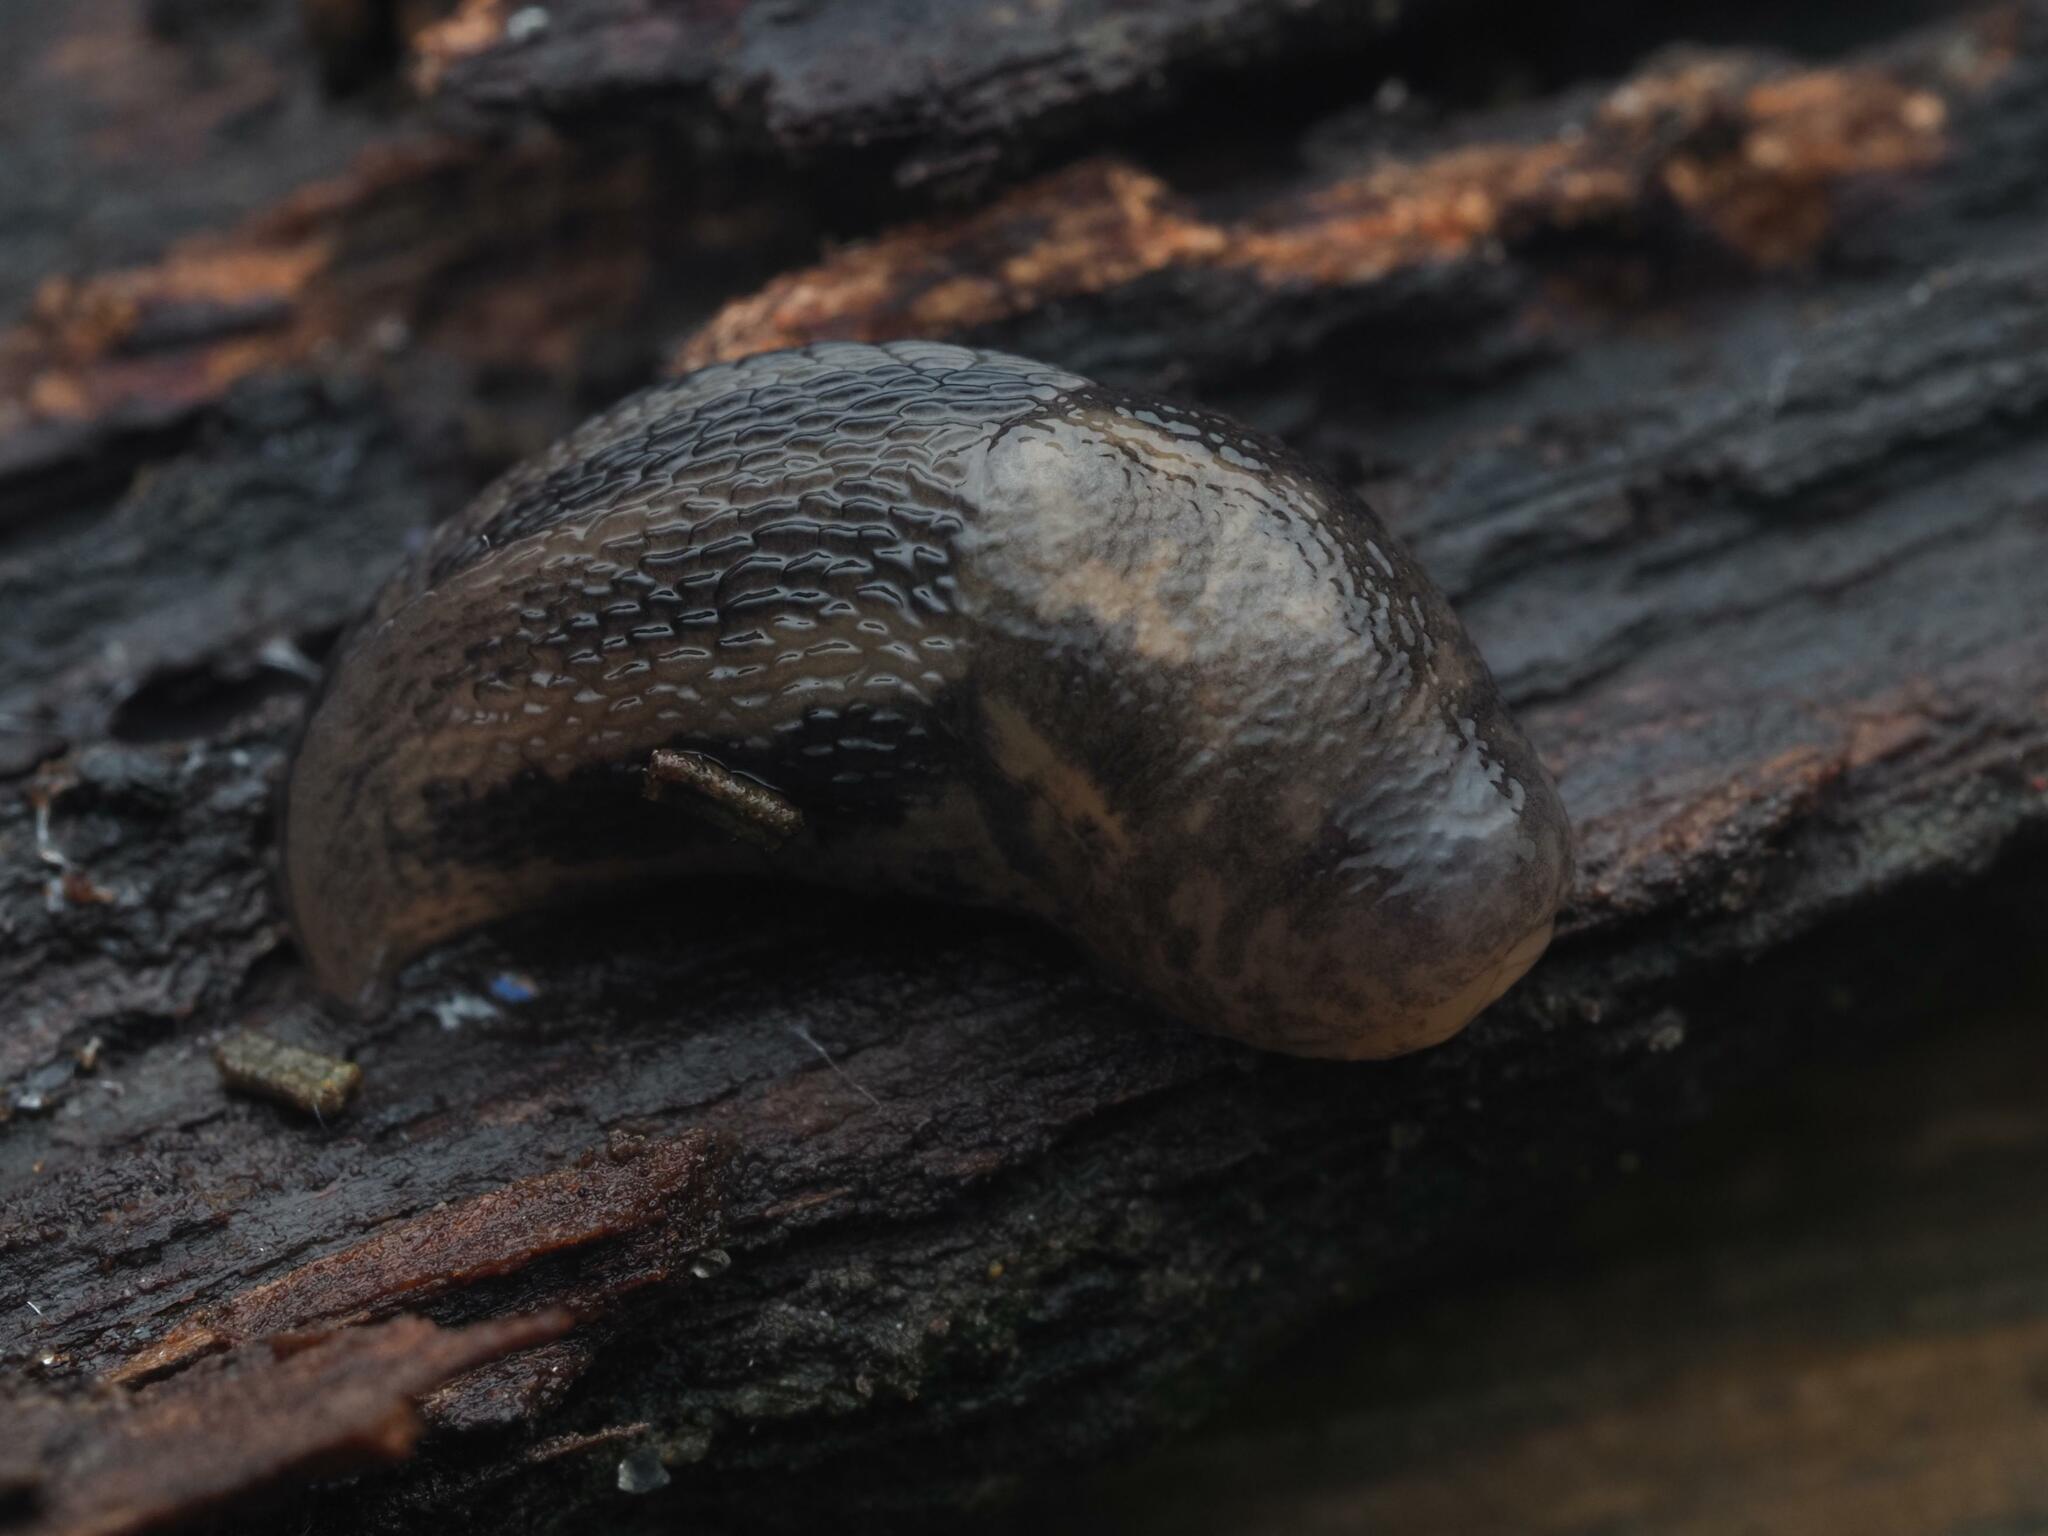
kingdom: Animalia
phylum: Mollusca
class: Gastropoda
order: Stylommatophora
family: Limacidae
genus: Limax
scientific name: Limax maximus
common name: Great grey slug
